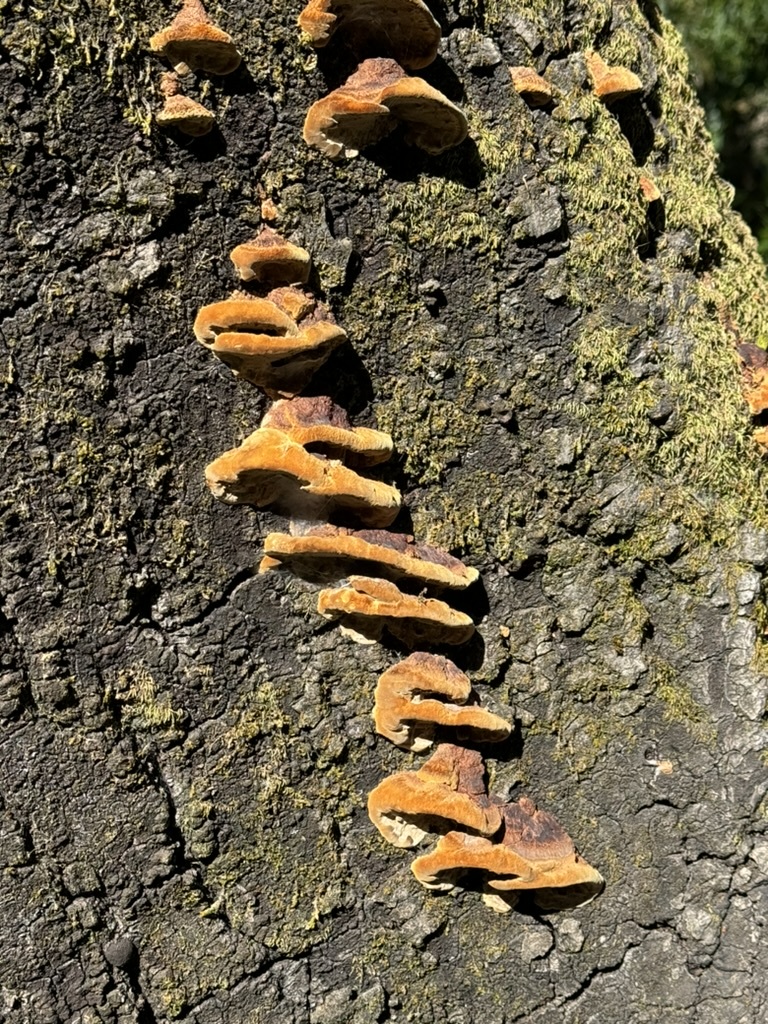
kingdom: Fungi
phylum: Basidiomycota
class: Agaricomycetes
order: Hymenochaetales
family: Hymenochaetaceae
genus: Phellinus
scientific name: Phellinus gilvus
